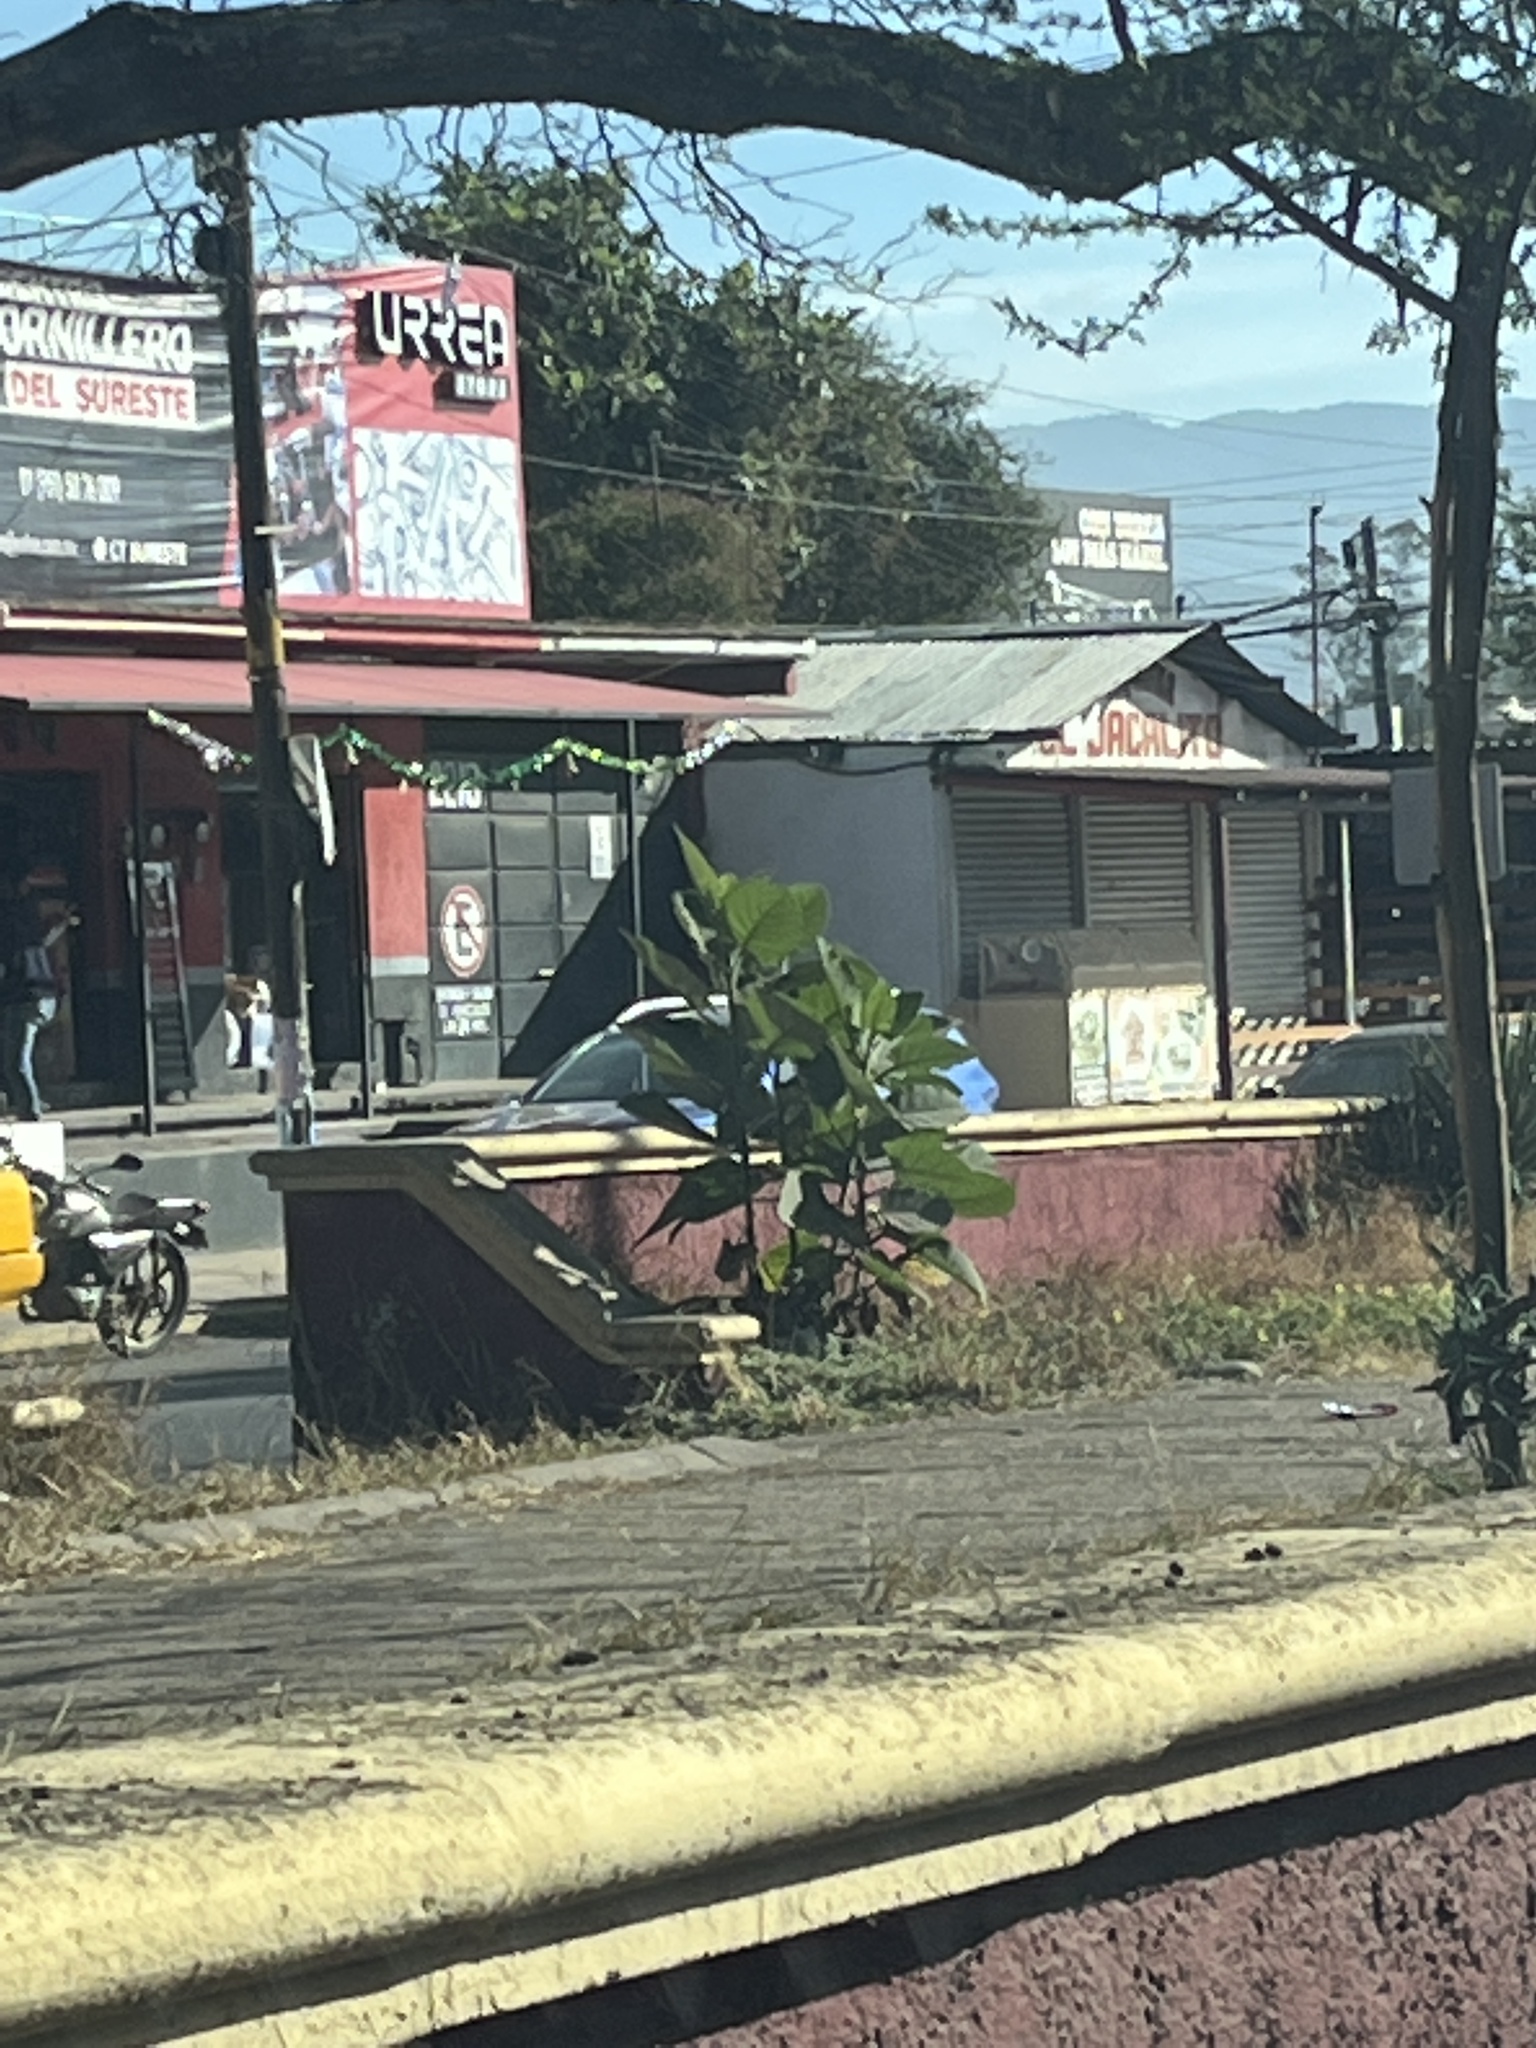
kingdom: Plantae
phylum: Tracheophyta
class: Magnoliopsida
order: Boraginales
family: Namaceae
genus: Wigandia
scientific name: Wigandia urens
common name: Caracus wigandia
